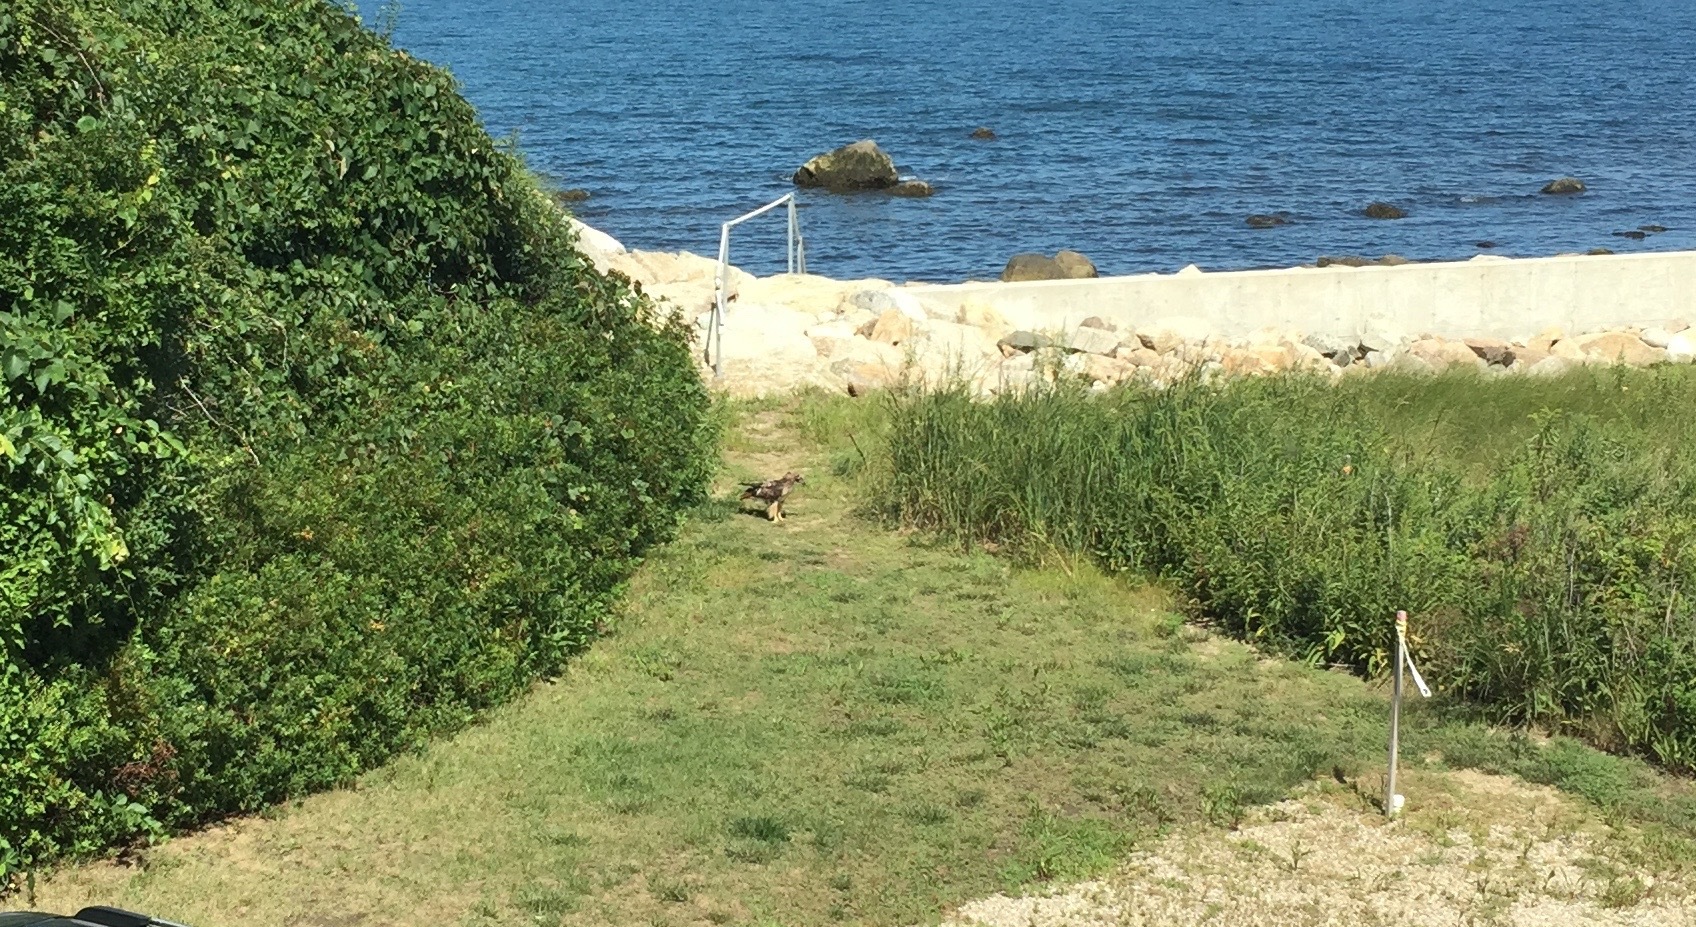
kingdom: Animalia
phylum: Chordata
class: Aves
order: Accipitriformes
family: Accipitridae
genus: Buteo
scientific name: Buteo jamaicensis
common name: Red-tailed hawk
